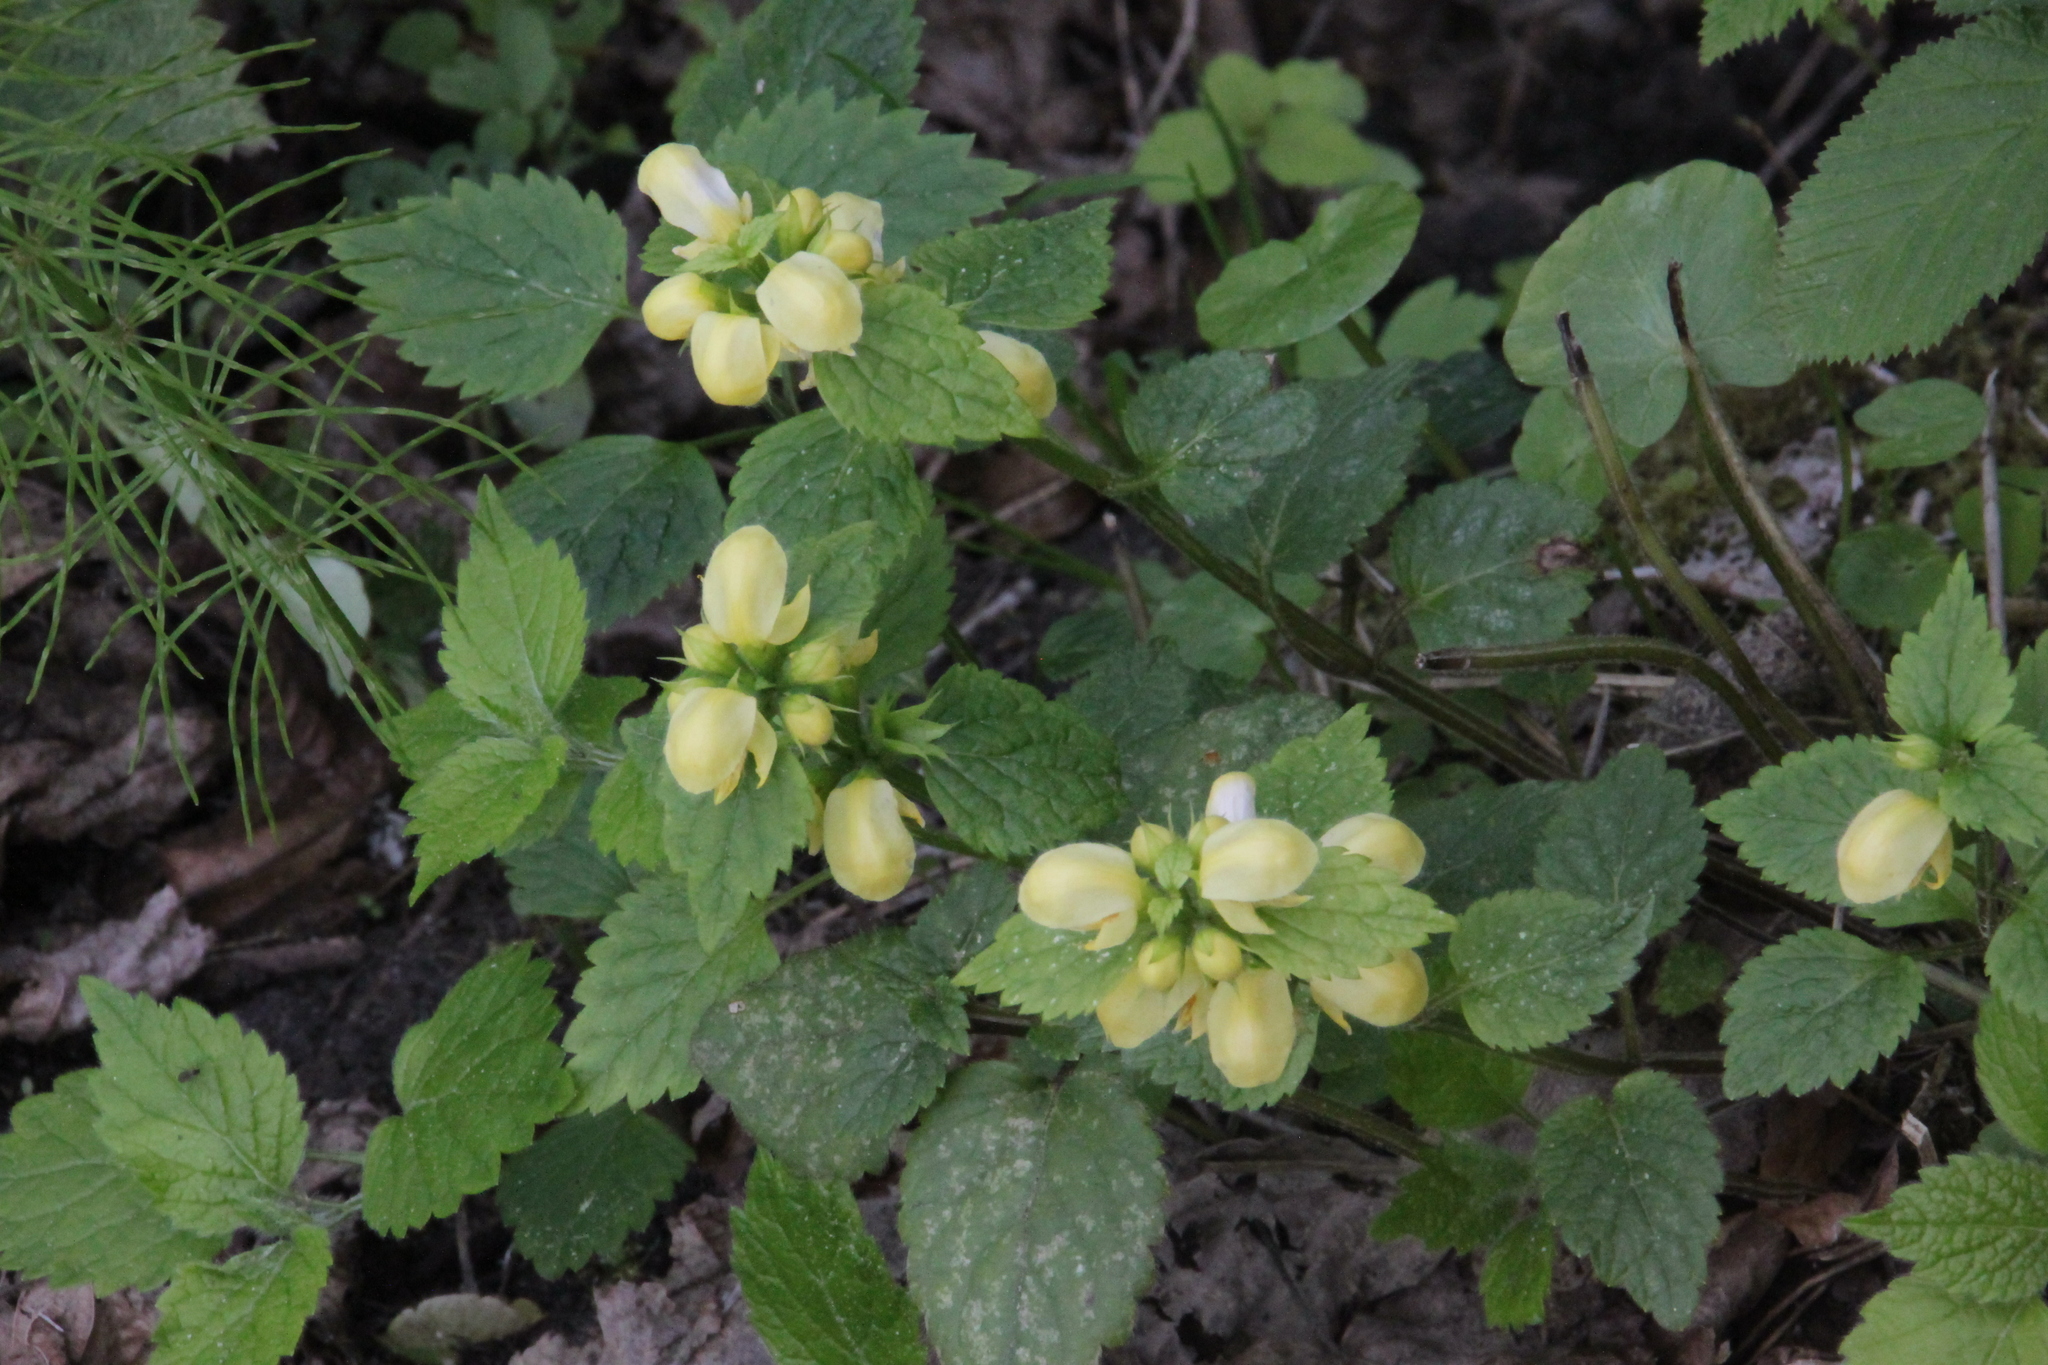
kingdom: Plantae
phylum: Tracheophyta
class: Magnoliopsida
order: Lamiales
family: Lamiaceae
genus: Lamium
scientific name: Lamium galeobdolon
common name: Yellow archangel
